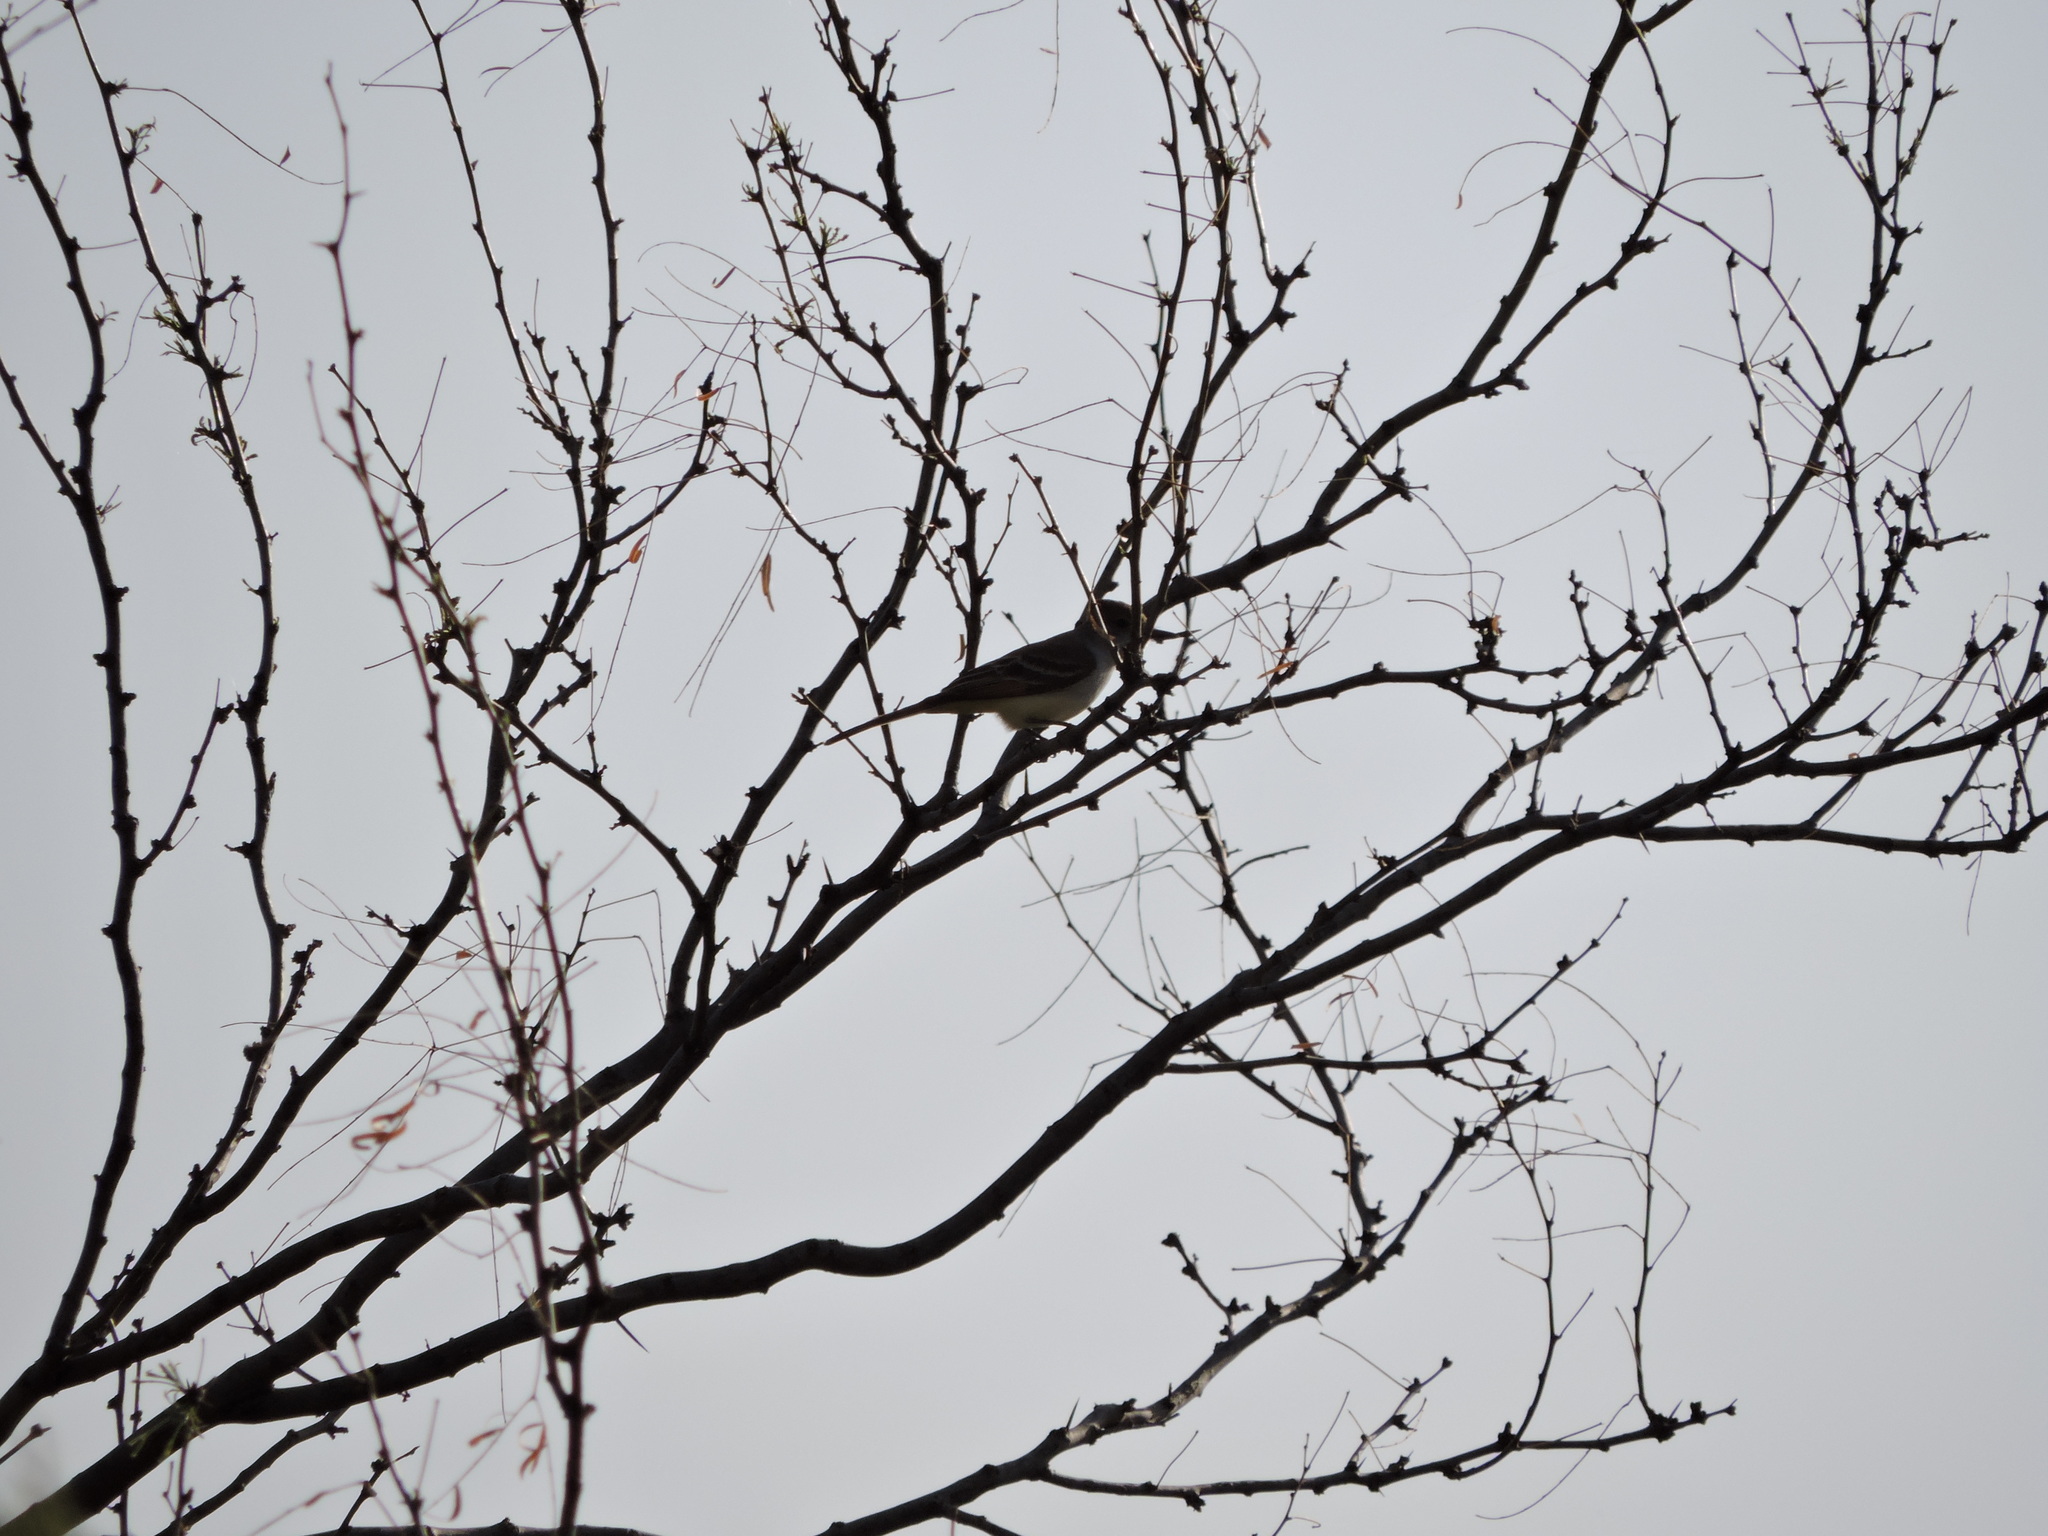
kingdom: Animalia
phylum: Chordata
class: Aves
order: Passeriformes
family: Tyrannidae
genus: Myiarchus
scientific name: Myiarchus cinerascens
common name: Ash-throated flycatcher
